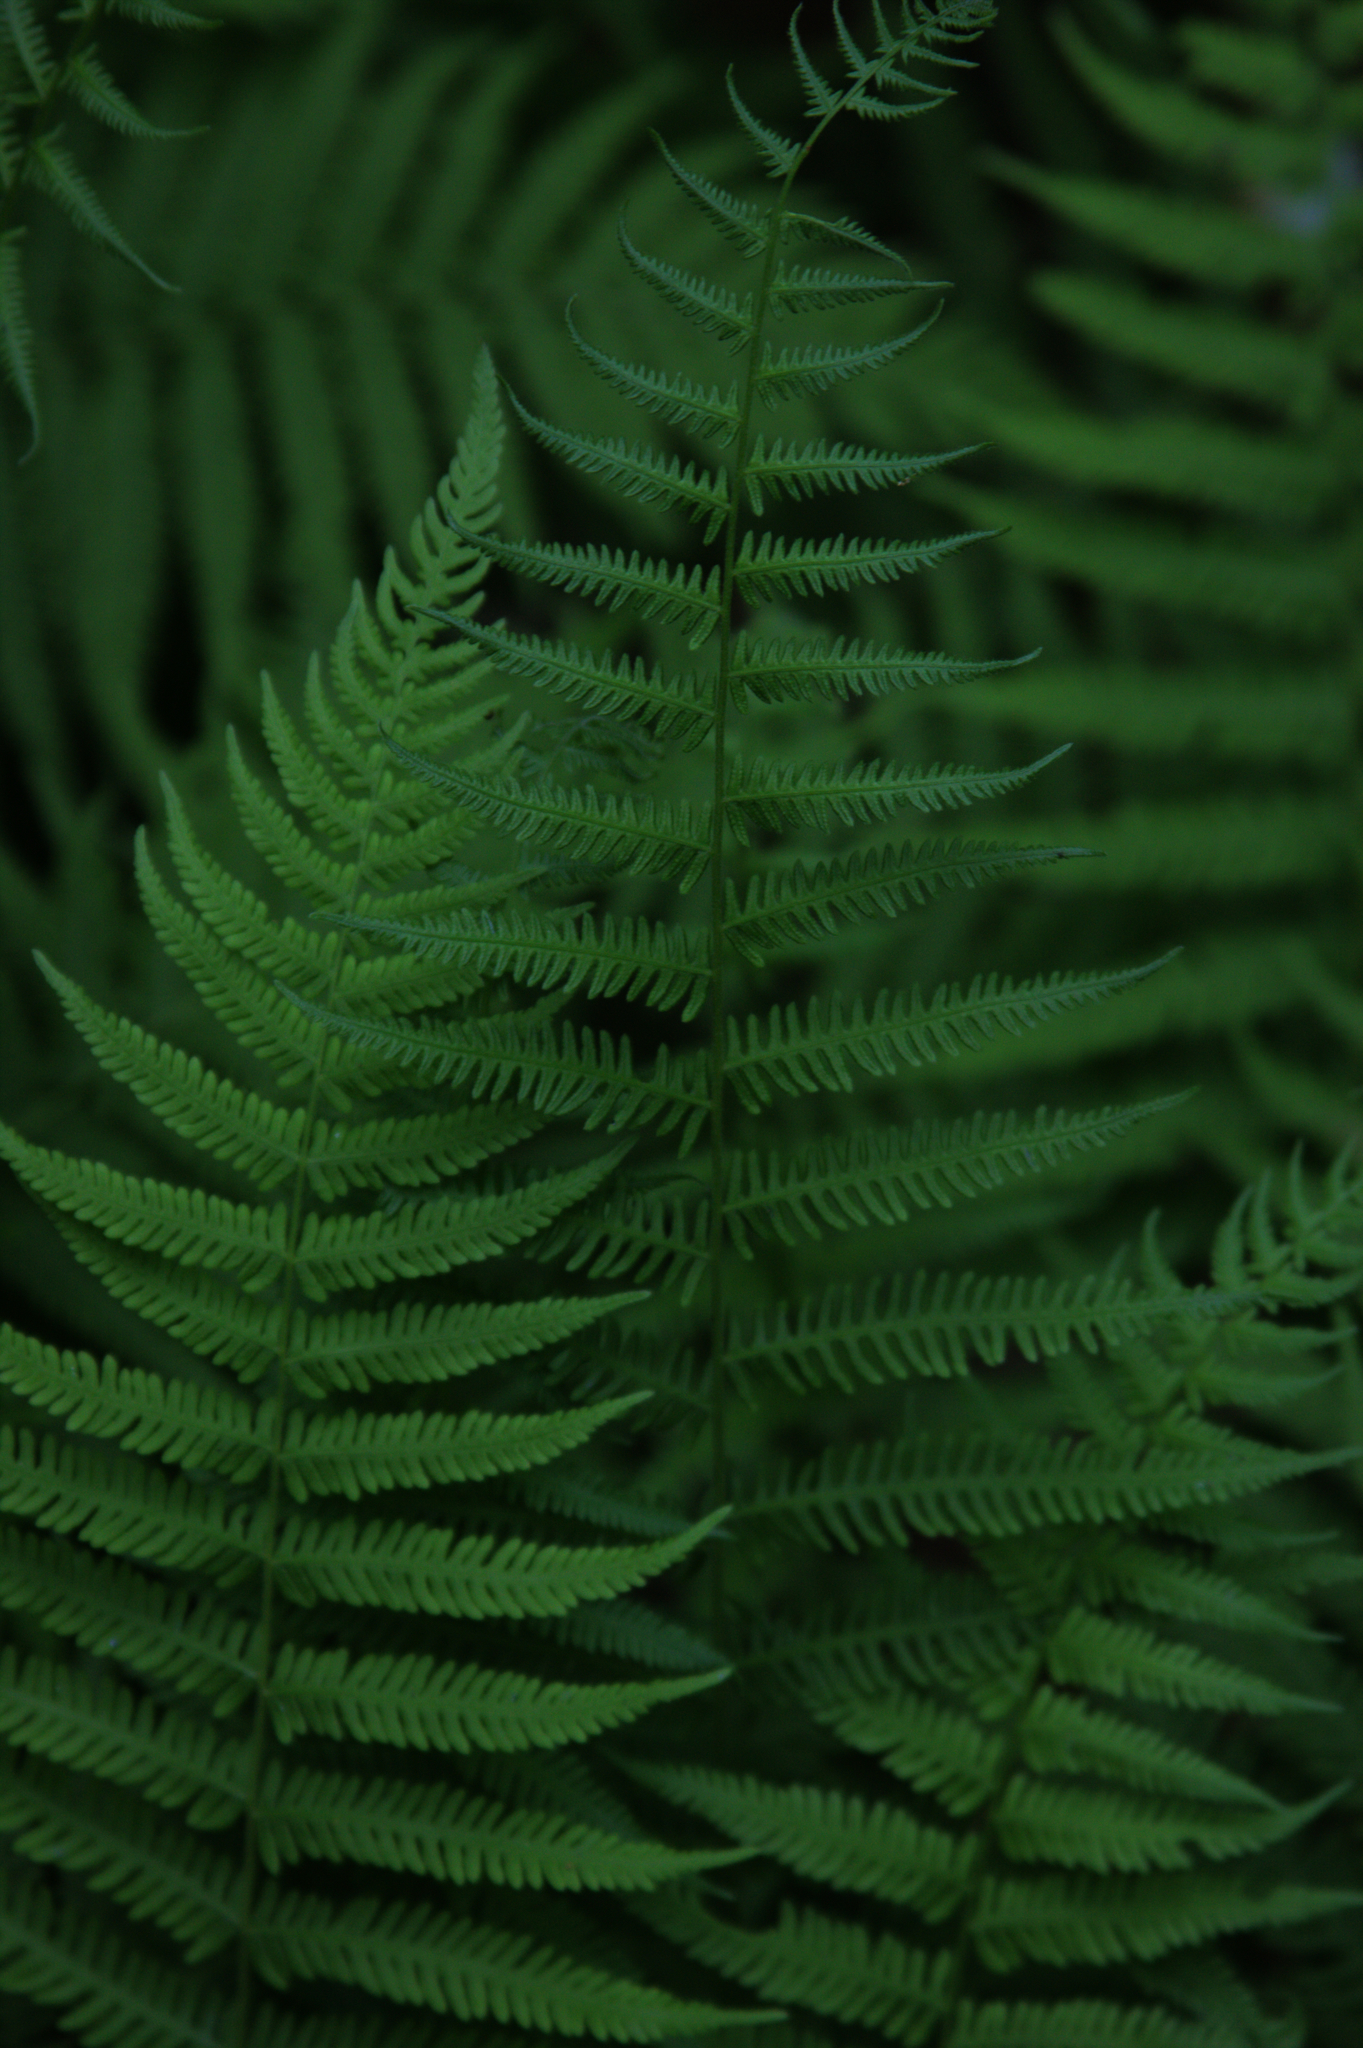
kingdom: Plantae
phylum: Tracheophyta
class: Polypodiopsida
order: Polypodiales
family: Dennstaedtiaceae
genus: Sitobolium
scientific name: Sitobolium punctilobum
